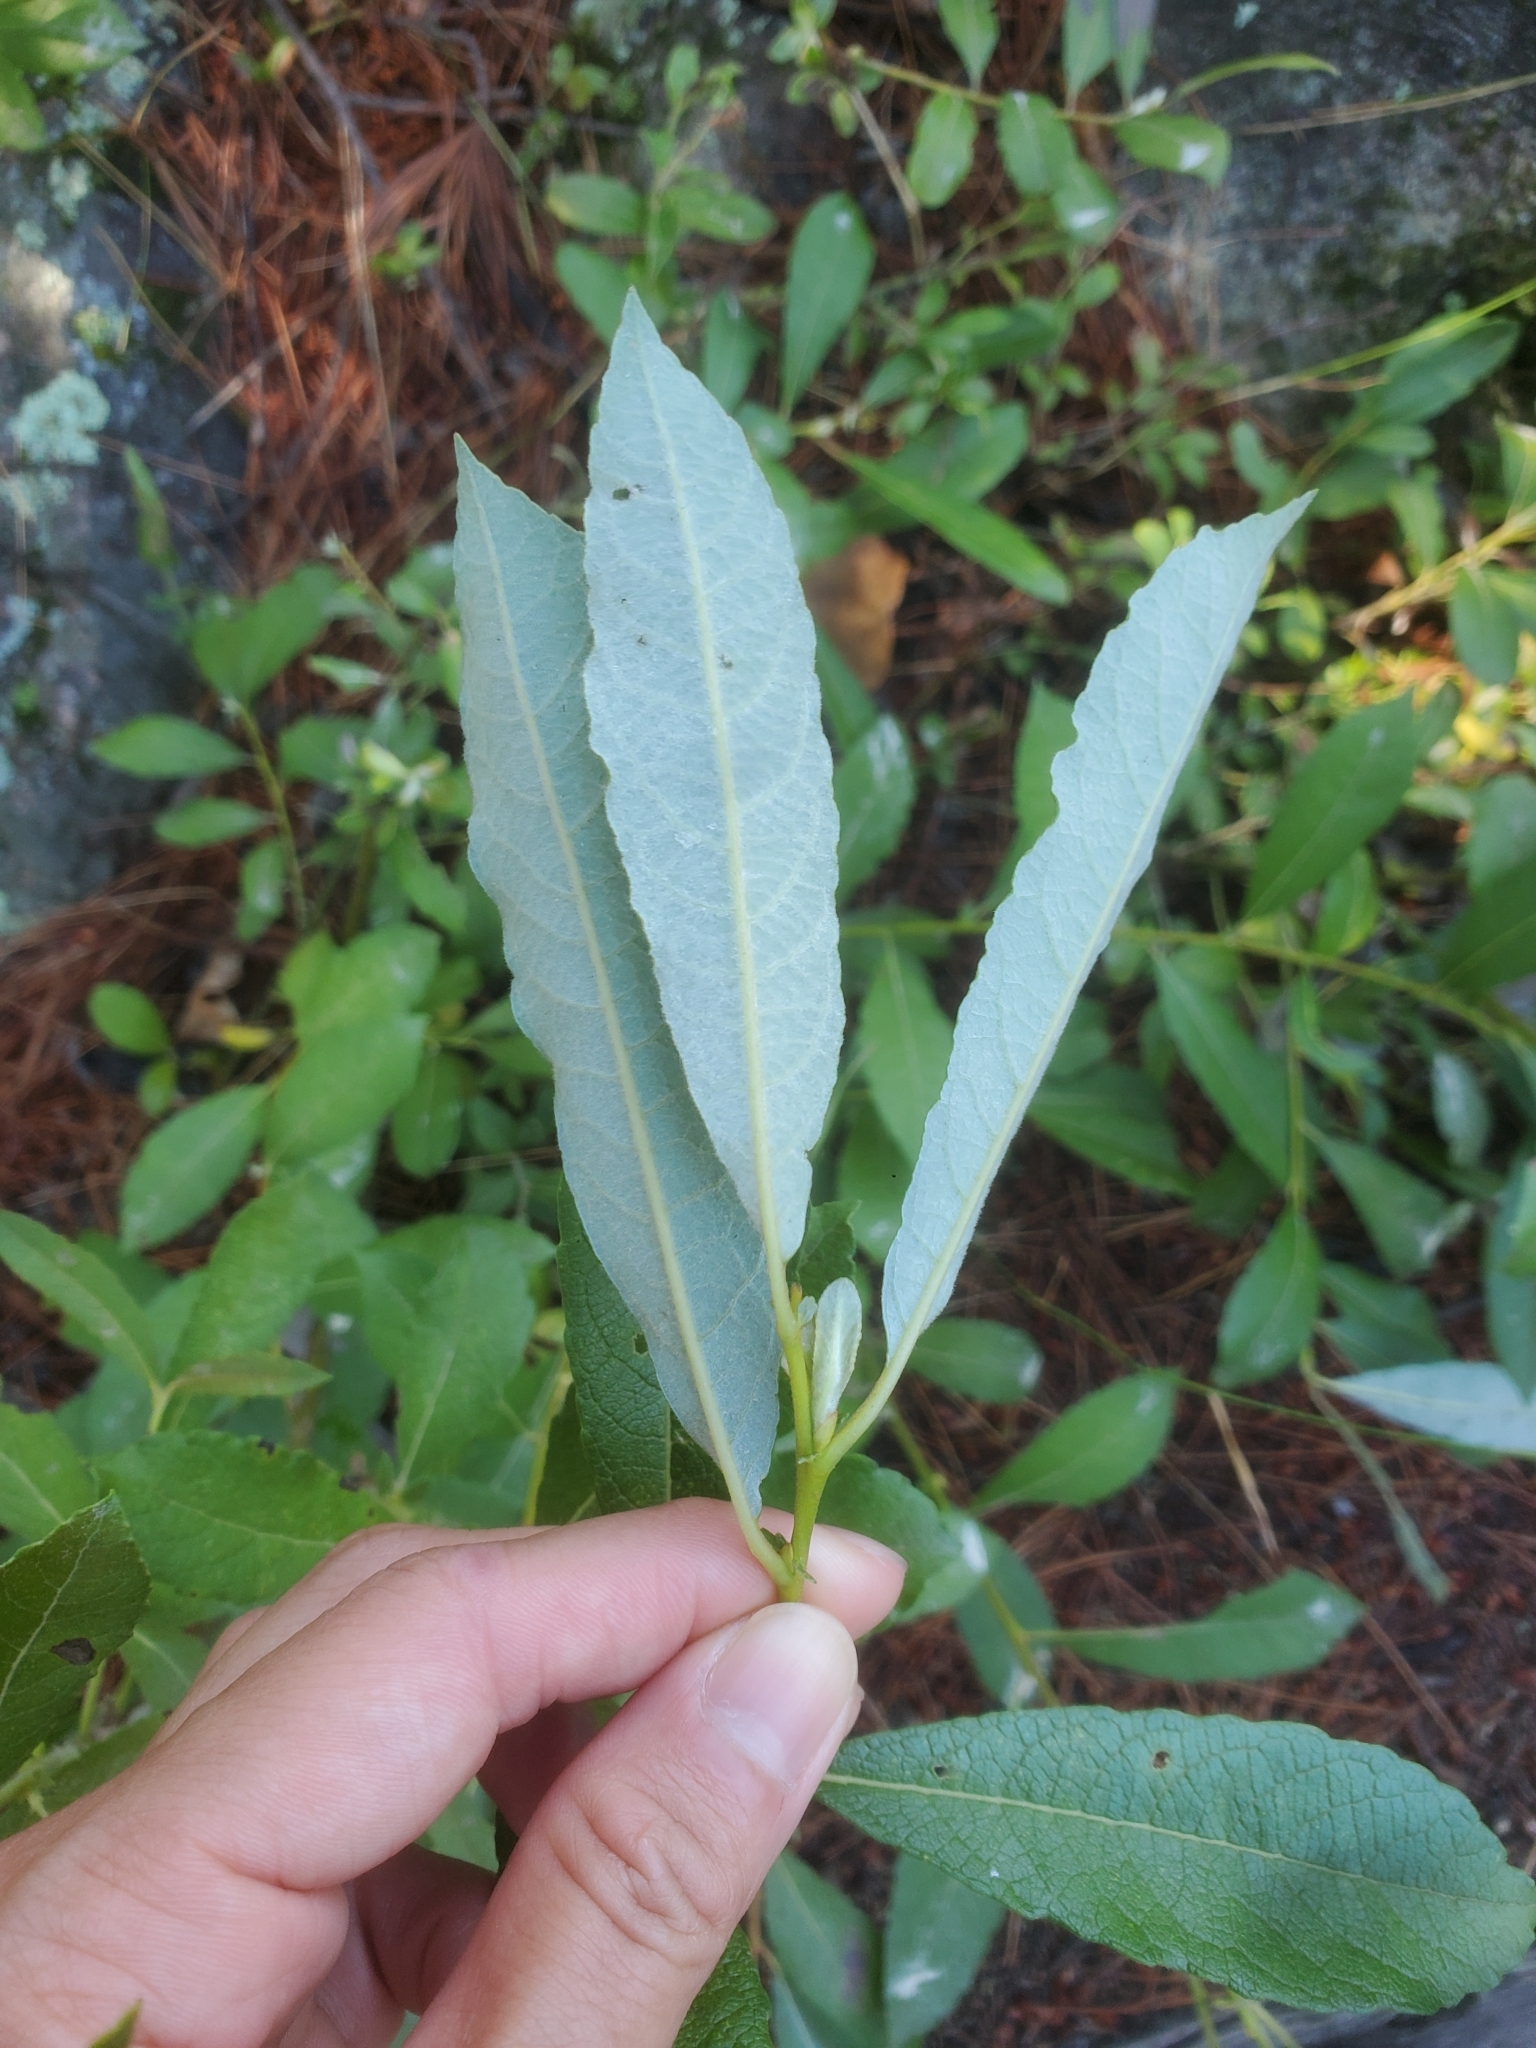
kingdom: Plantae
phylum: Tracheophyta
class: Magnoliopsida
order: Malpighiales
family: Salicaceae
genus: Salix
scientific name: Salix humilis
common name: Prairie willow
